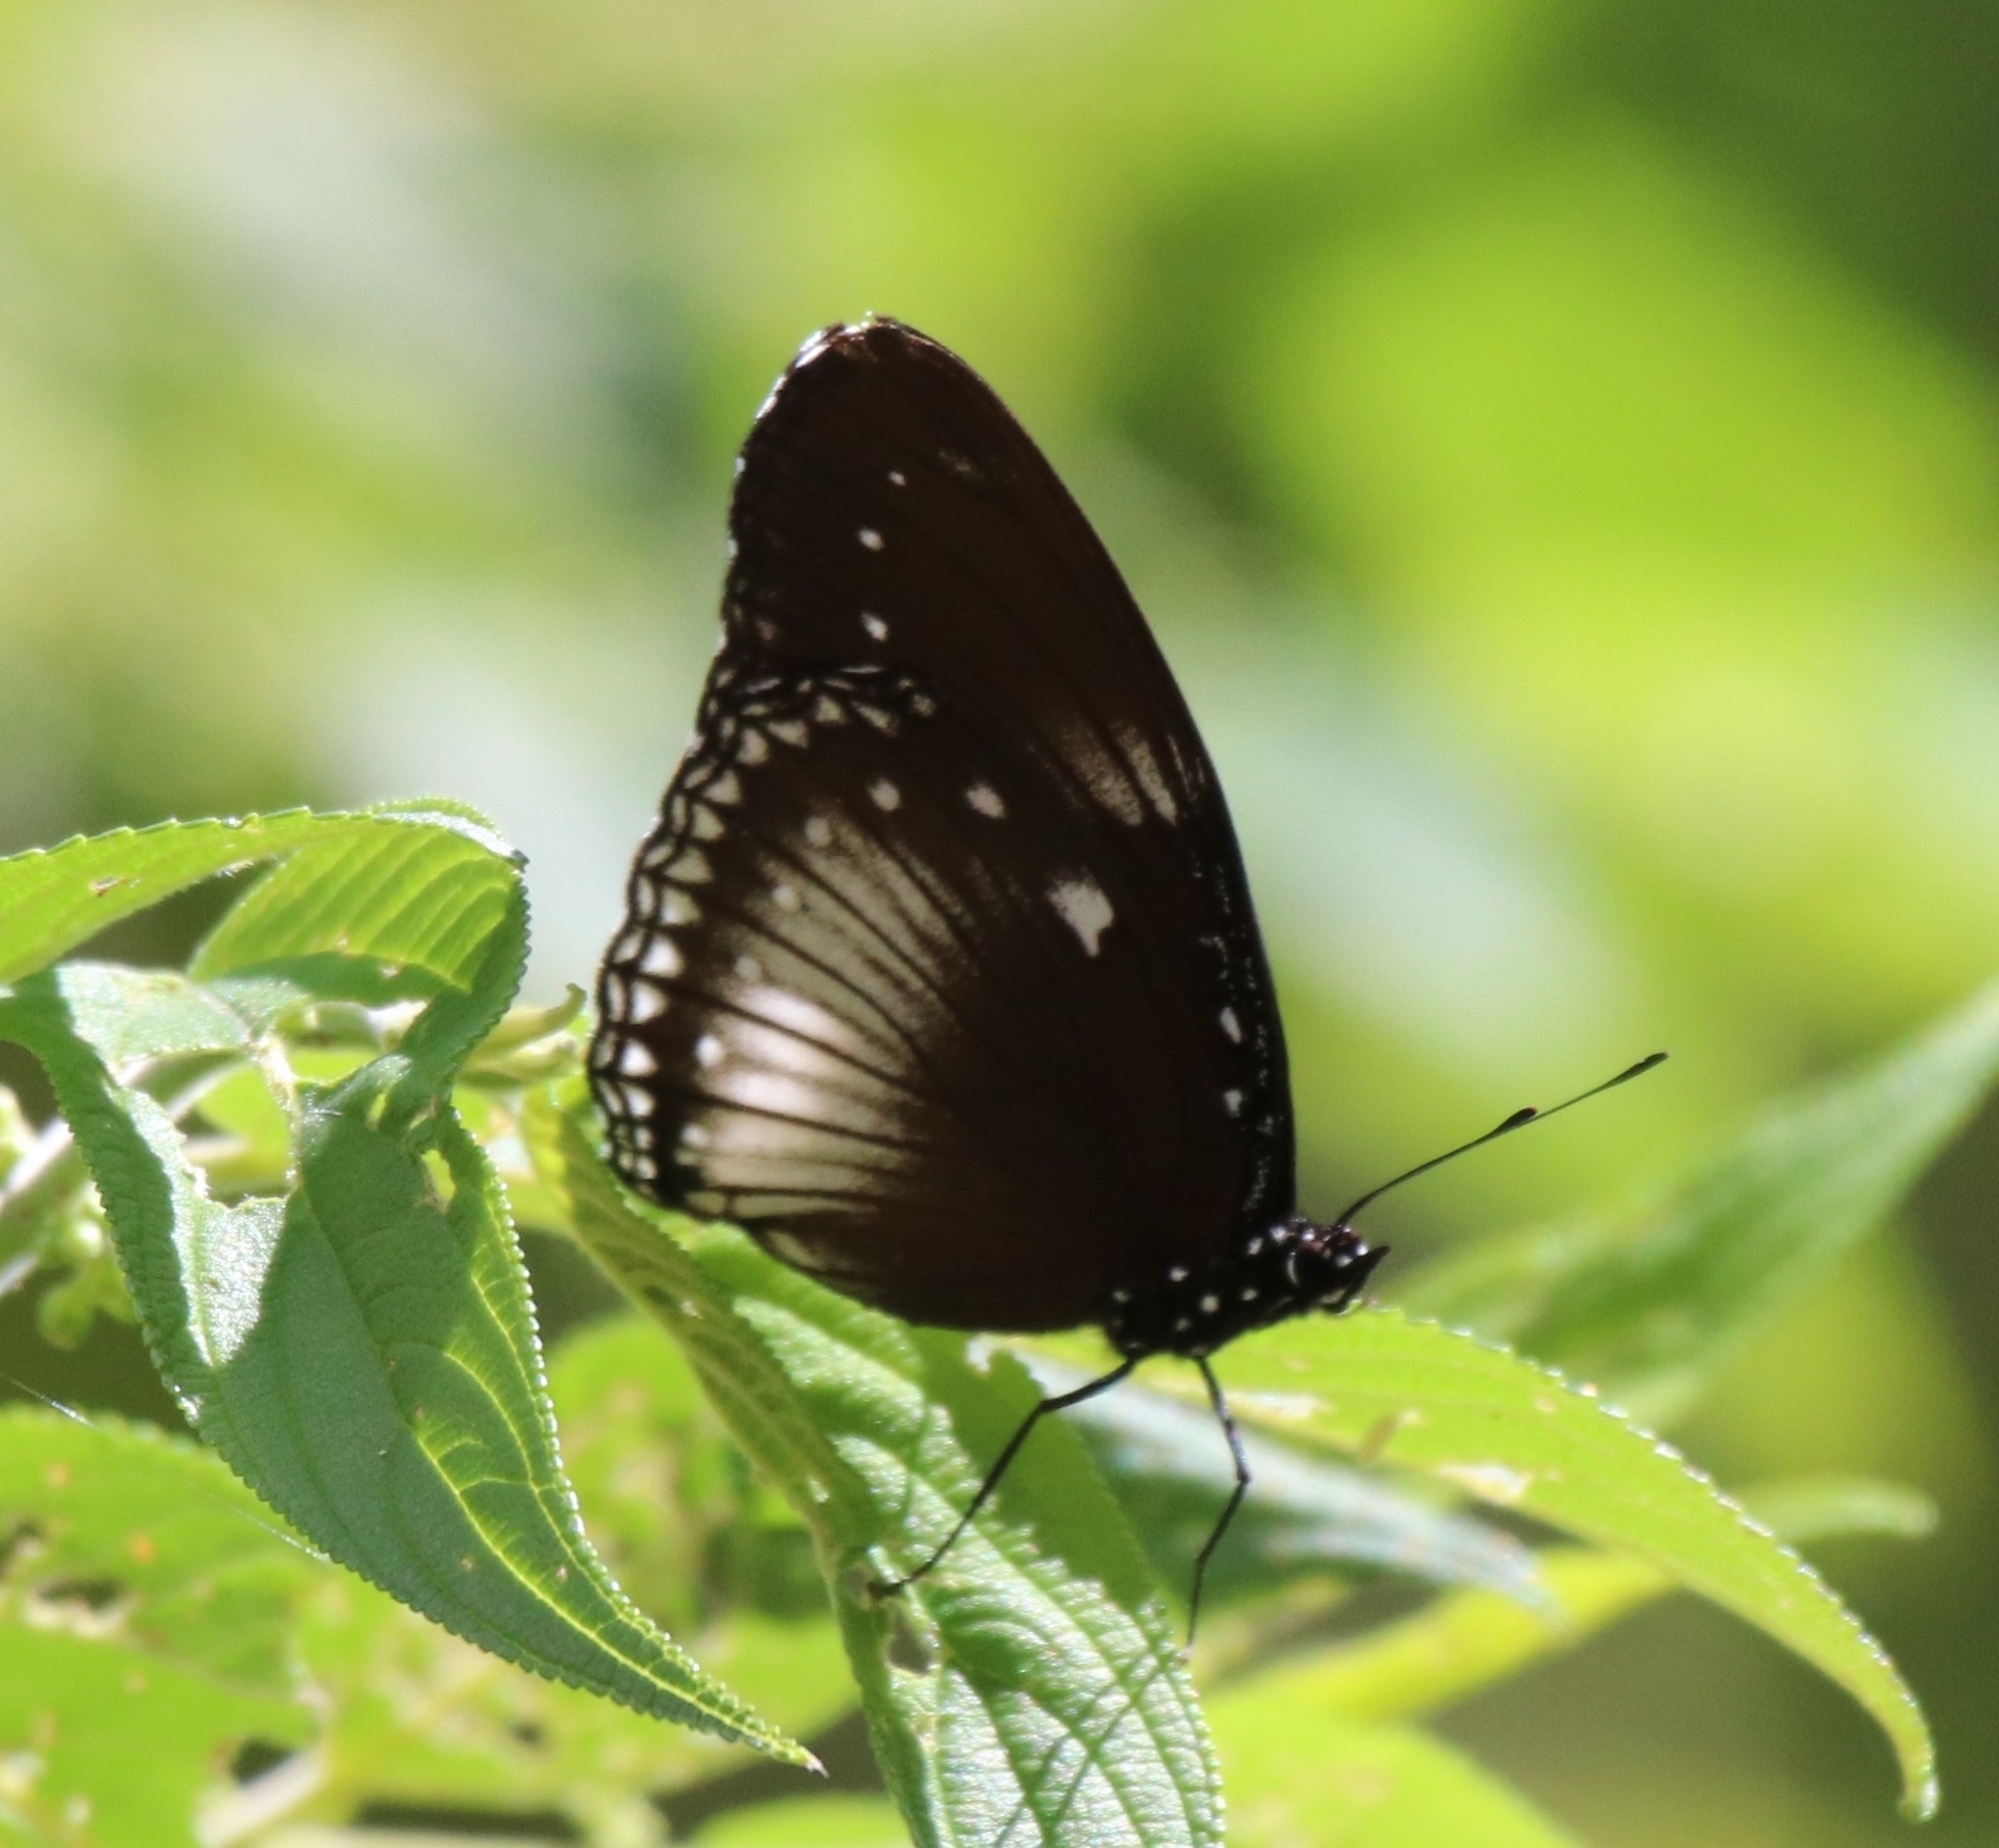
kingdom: Animalia
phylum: Arthropoda
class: Insecta
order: Lepidoptera
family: Nymphalidae
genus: Hypolimnas
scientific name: Hypolimnas anomala
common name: Malayan eggfly
